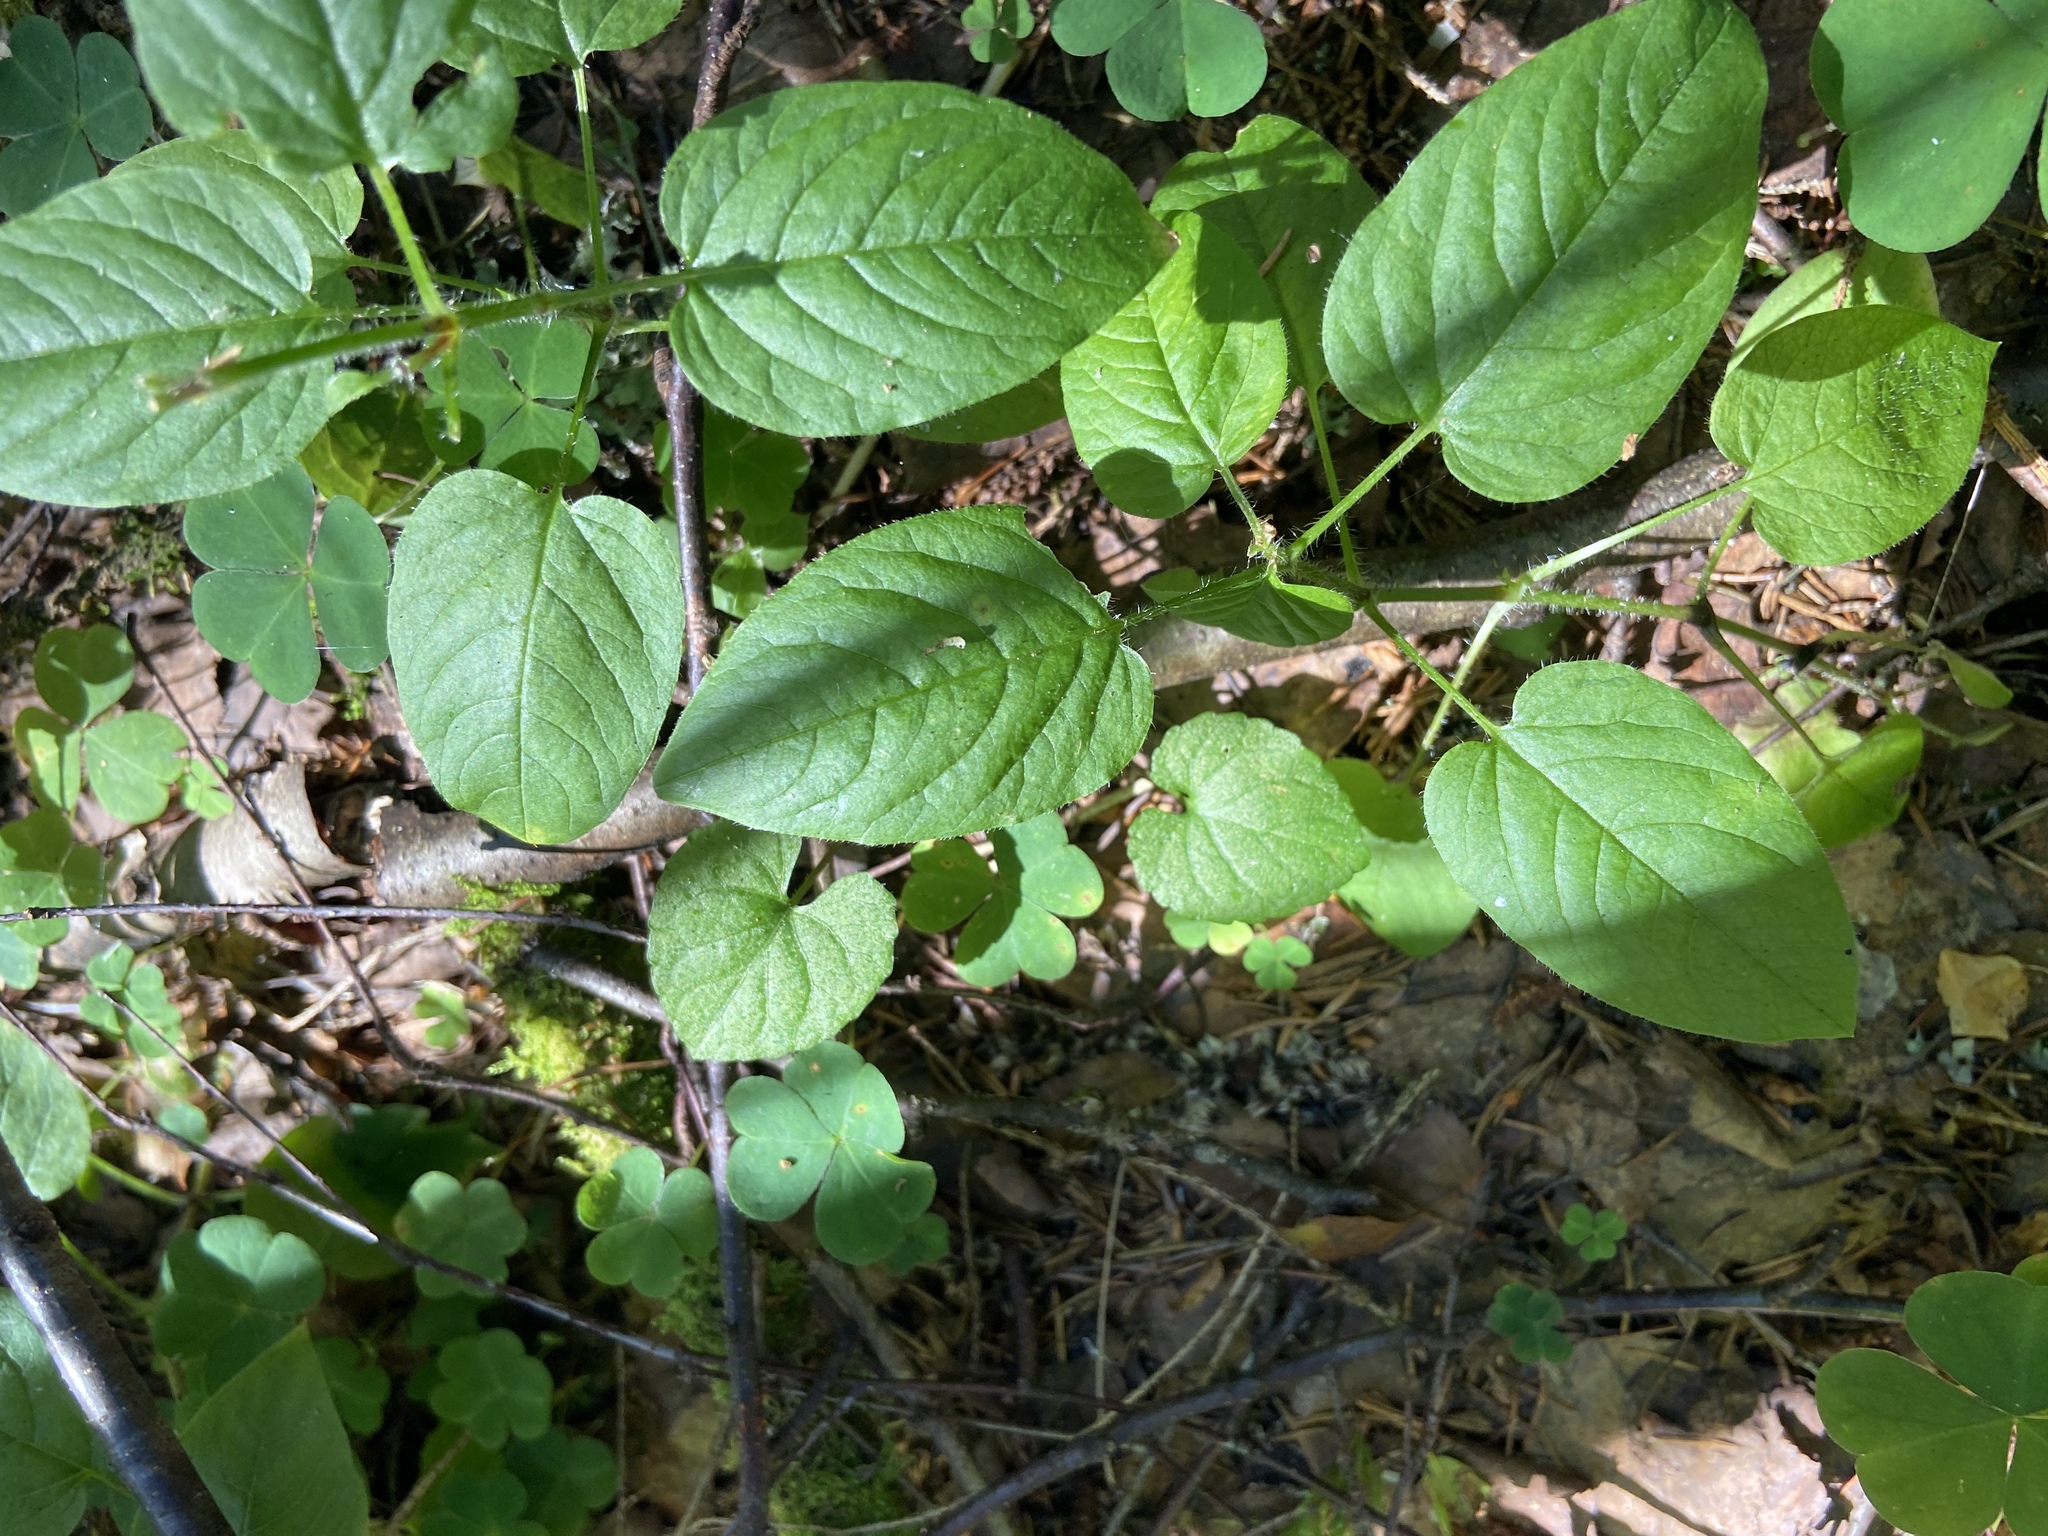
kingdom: Plantae
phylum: Tracheophyta
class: Magnoliopsida
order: Caryophyllales
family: Caryophyllaceae
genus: Stellaria
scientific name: Stellaria nemorum
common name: Wood stitchwort
